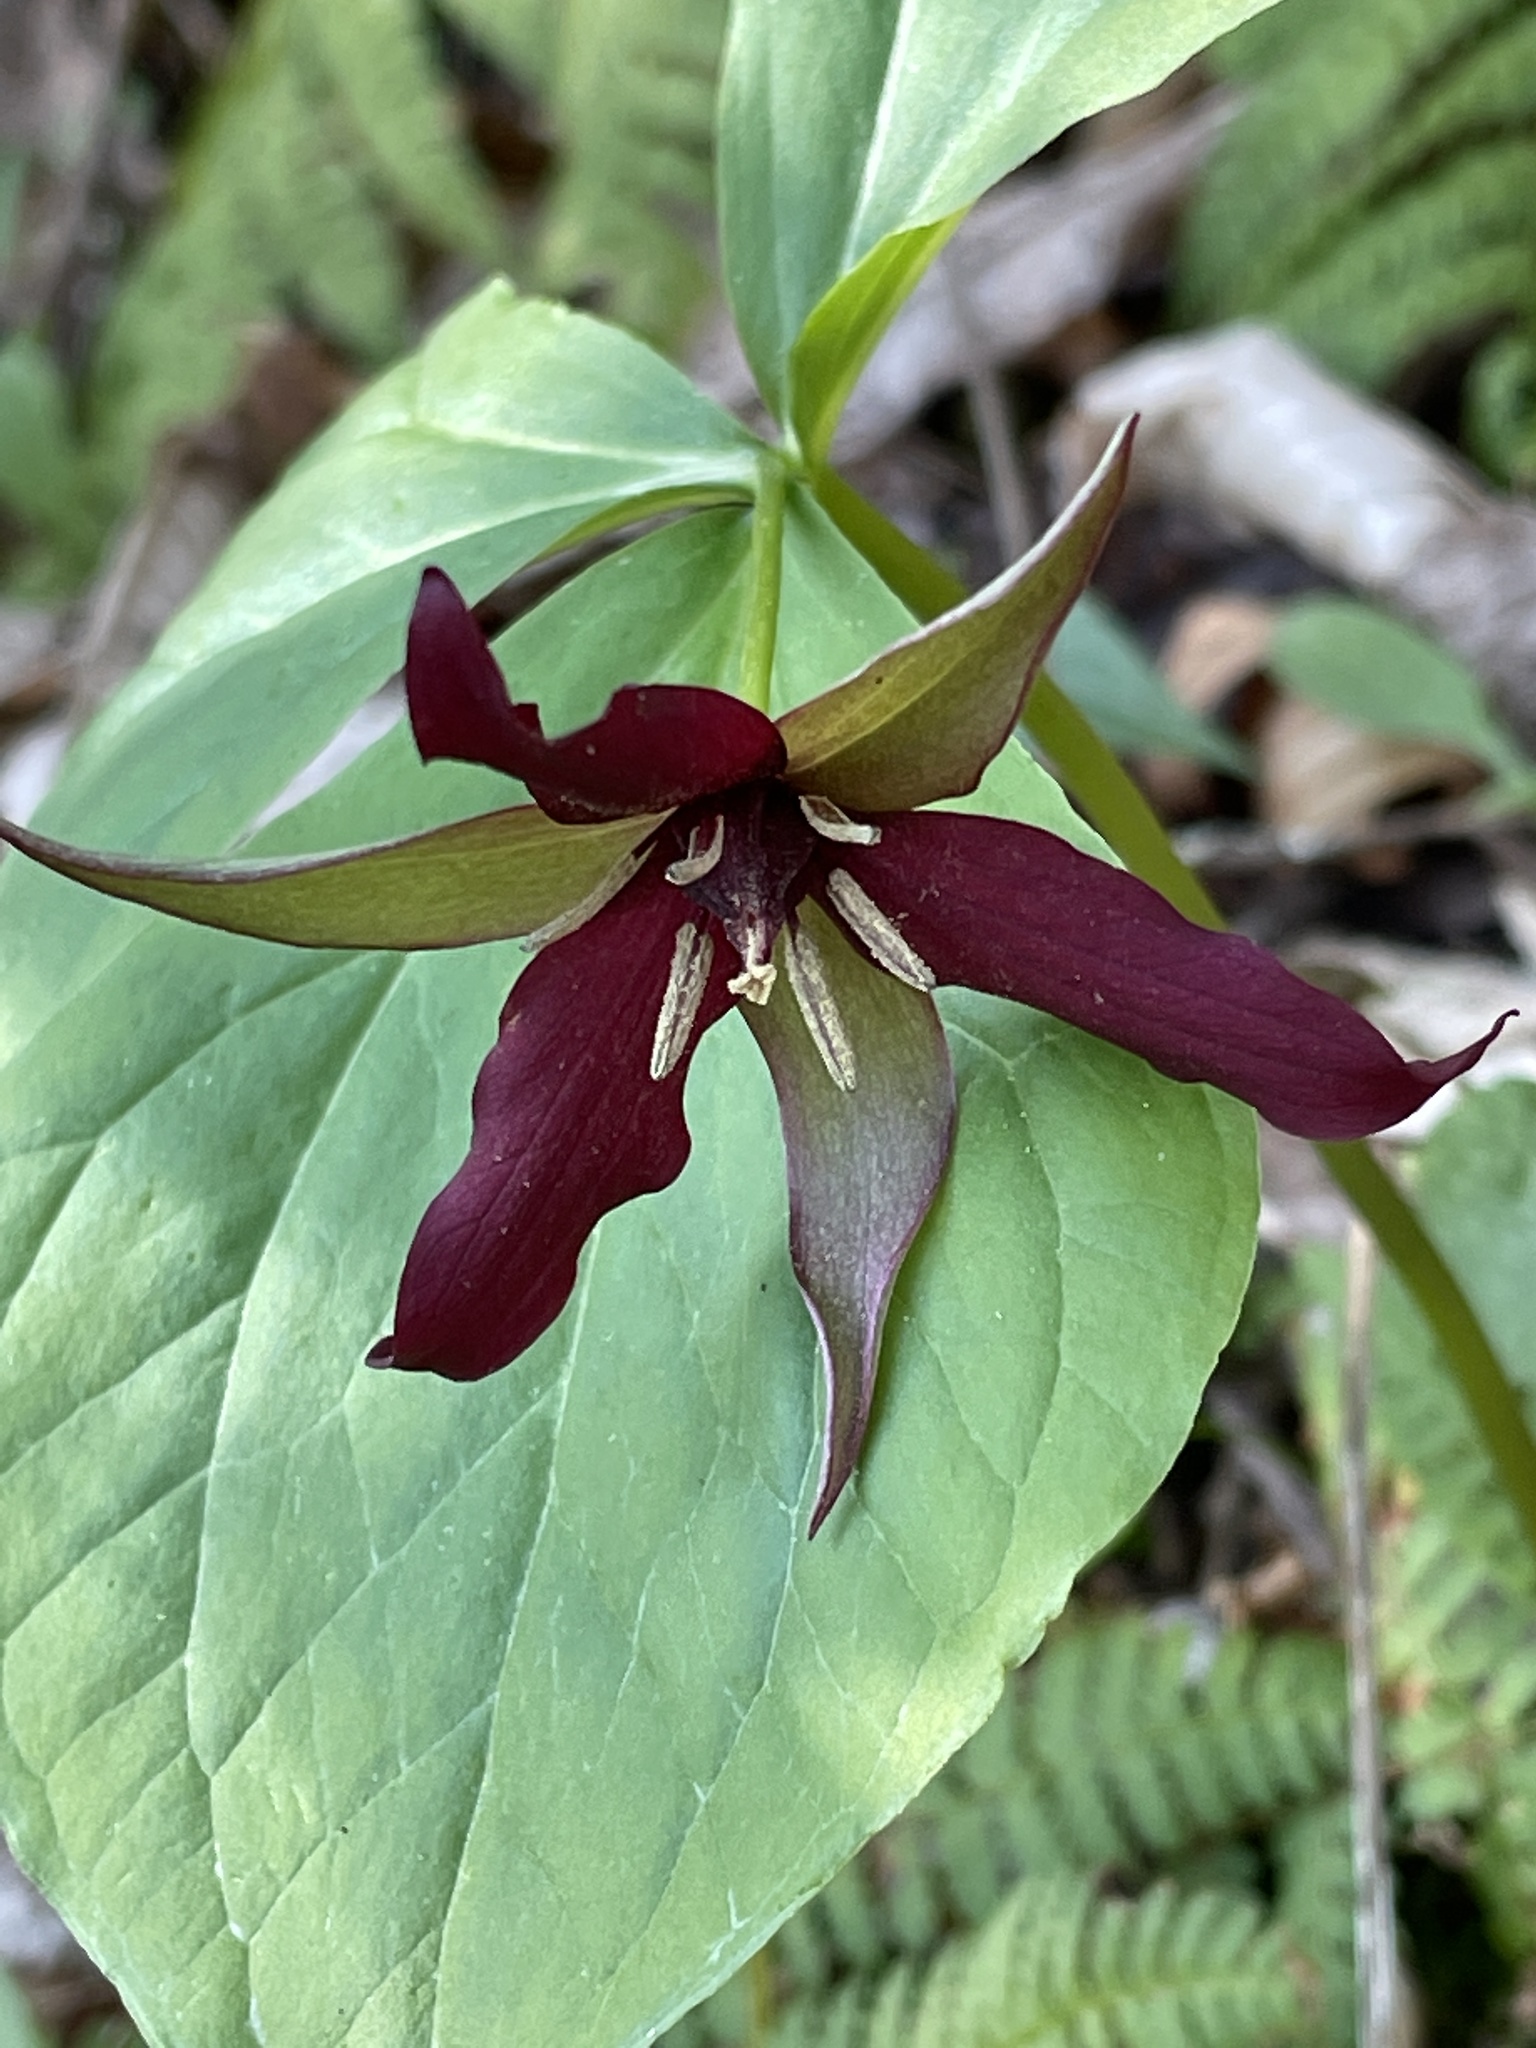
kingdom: Plantae
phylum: Tracheophyta
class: Liliopsida
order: Liliales
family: Melanthiaceae
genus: Trillium
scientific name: Trillium erectum
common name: Purple trillium
